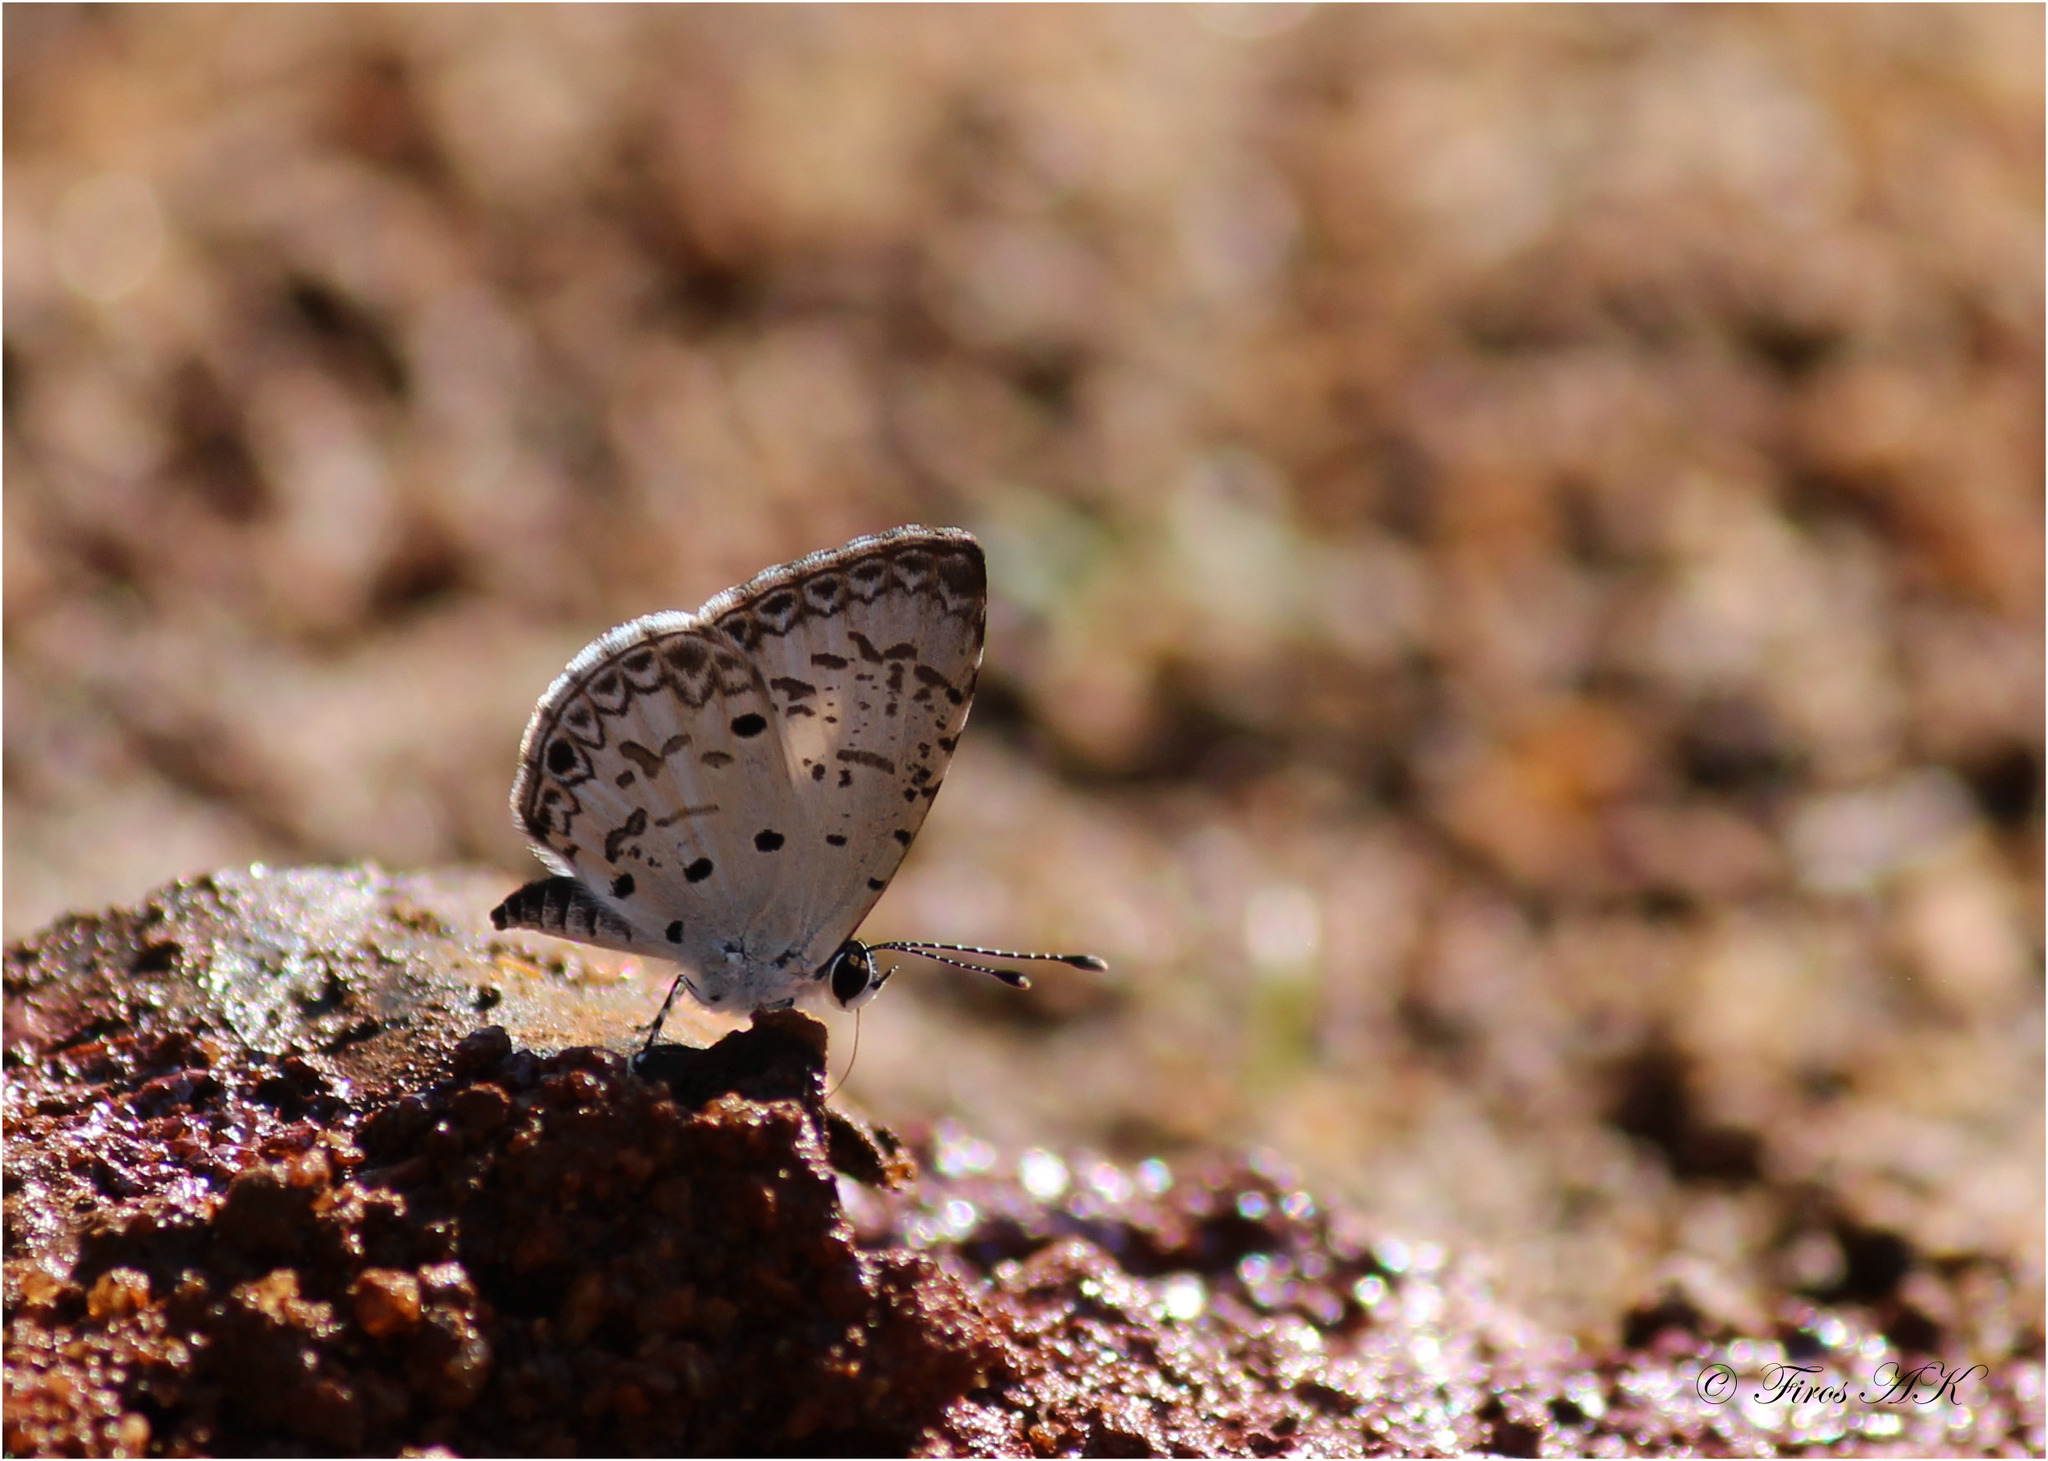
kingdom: Animalia
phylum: Arthropoda
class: Insecta
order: Lepidoptera
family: Lycaenidae
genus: Megisba
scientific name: Megisba malaya
